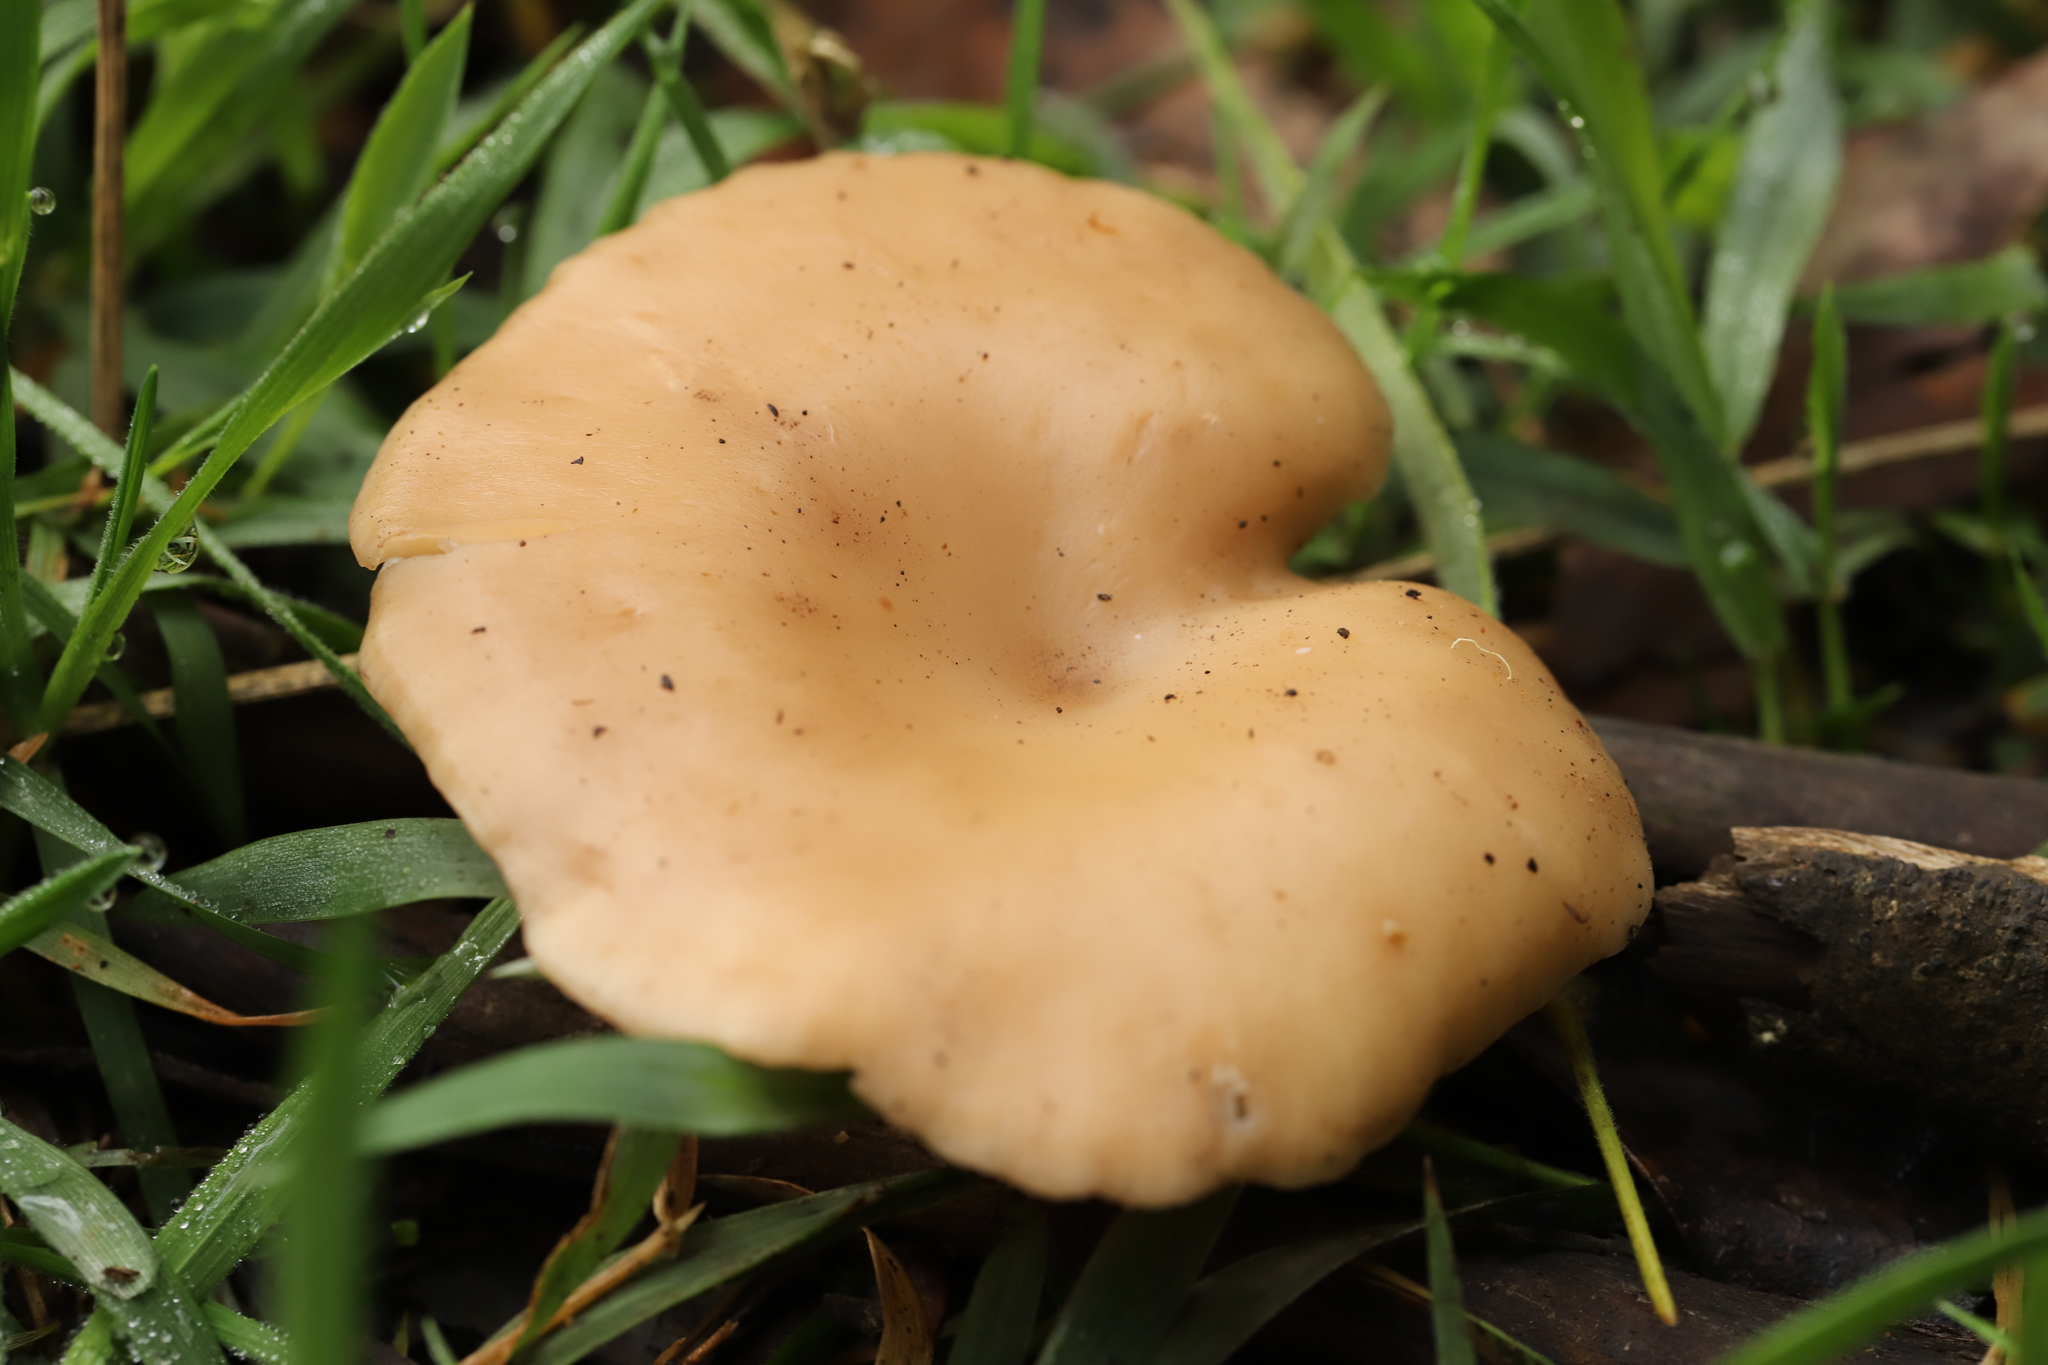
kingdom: Fungi
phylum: Basidiomycota
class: Agaricomycetes
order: Agaricales
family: Tricholomataceae
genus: Singerocybe
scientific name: Singerocybe clitocyboides
